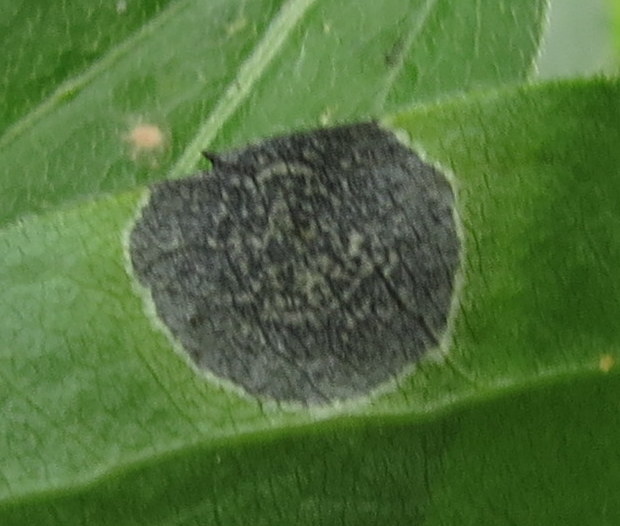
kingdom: Animalia
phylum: Arthropoda
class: Insecta
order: Diptera
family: Cecidomyiidae
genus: Asteromyia
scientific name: Asteromyia carbonifera
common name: Carbonifera goldenrod gall midge
